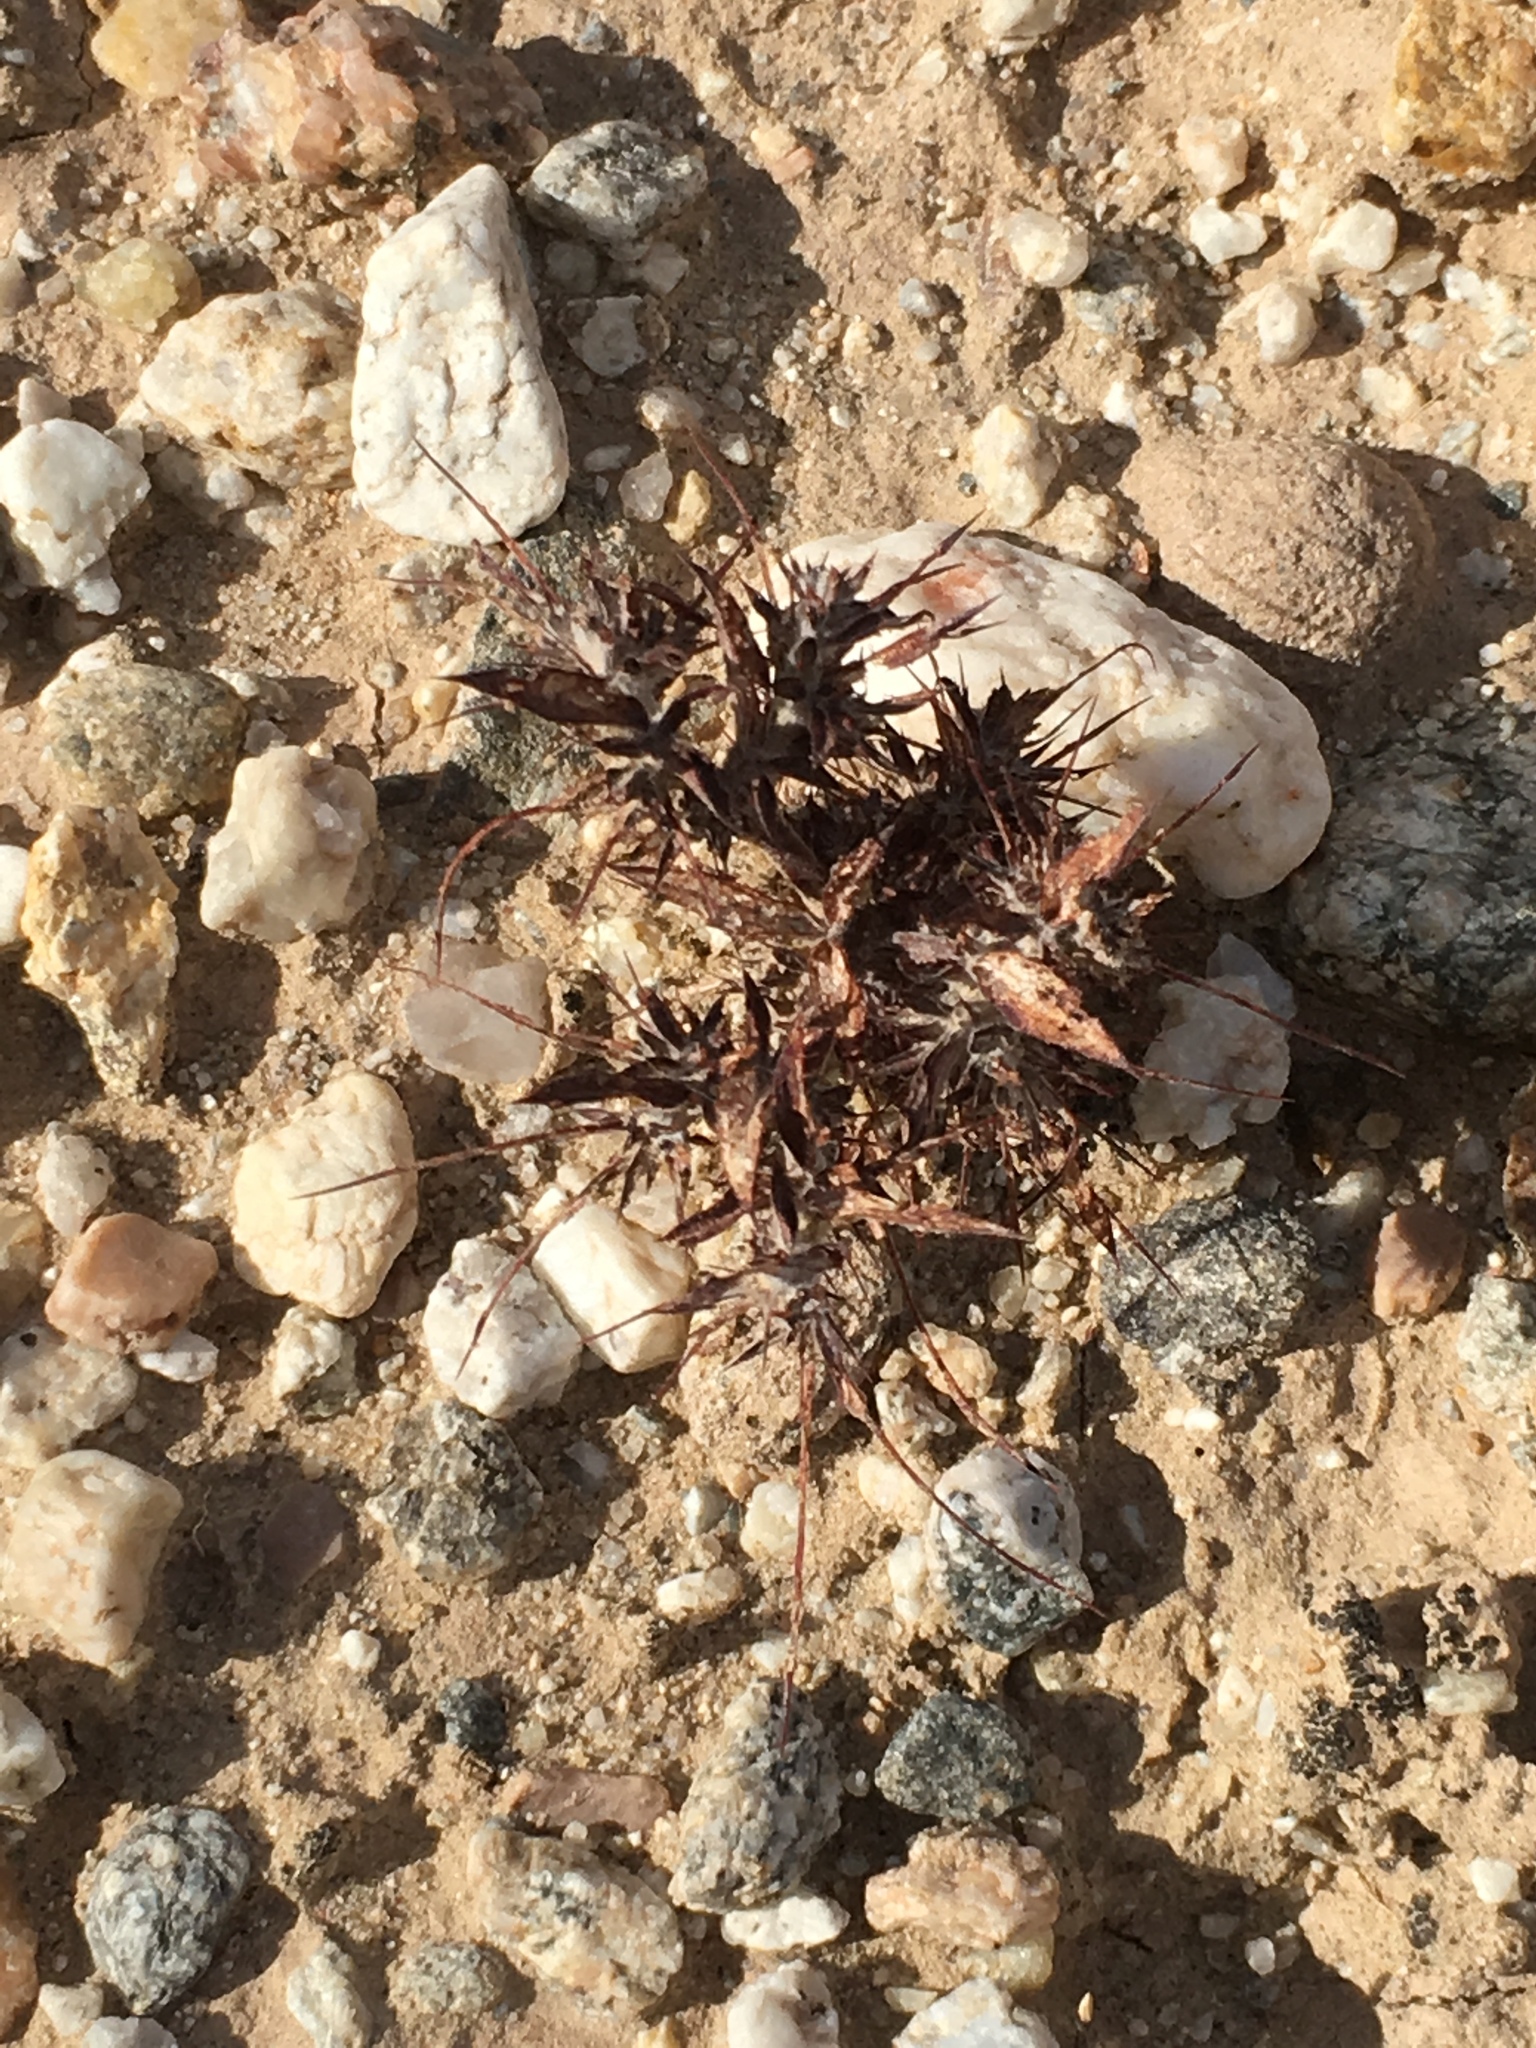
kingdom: Plantae
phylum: Tracheophyta
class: Magnoliopsida
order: Caryophyllales
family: Polygonaceae
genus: Chorizanthe
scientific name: Chorizanthe rigida
